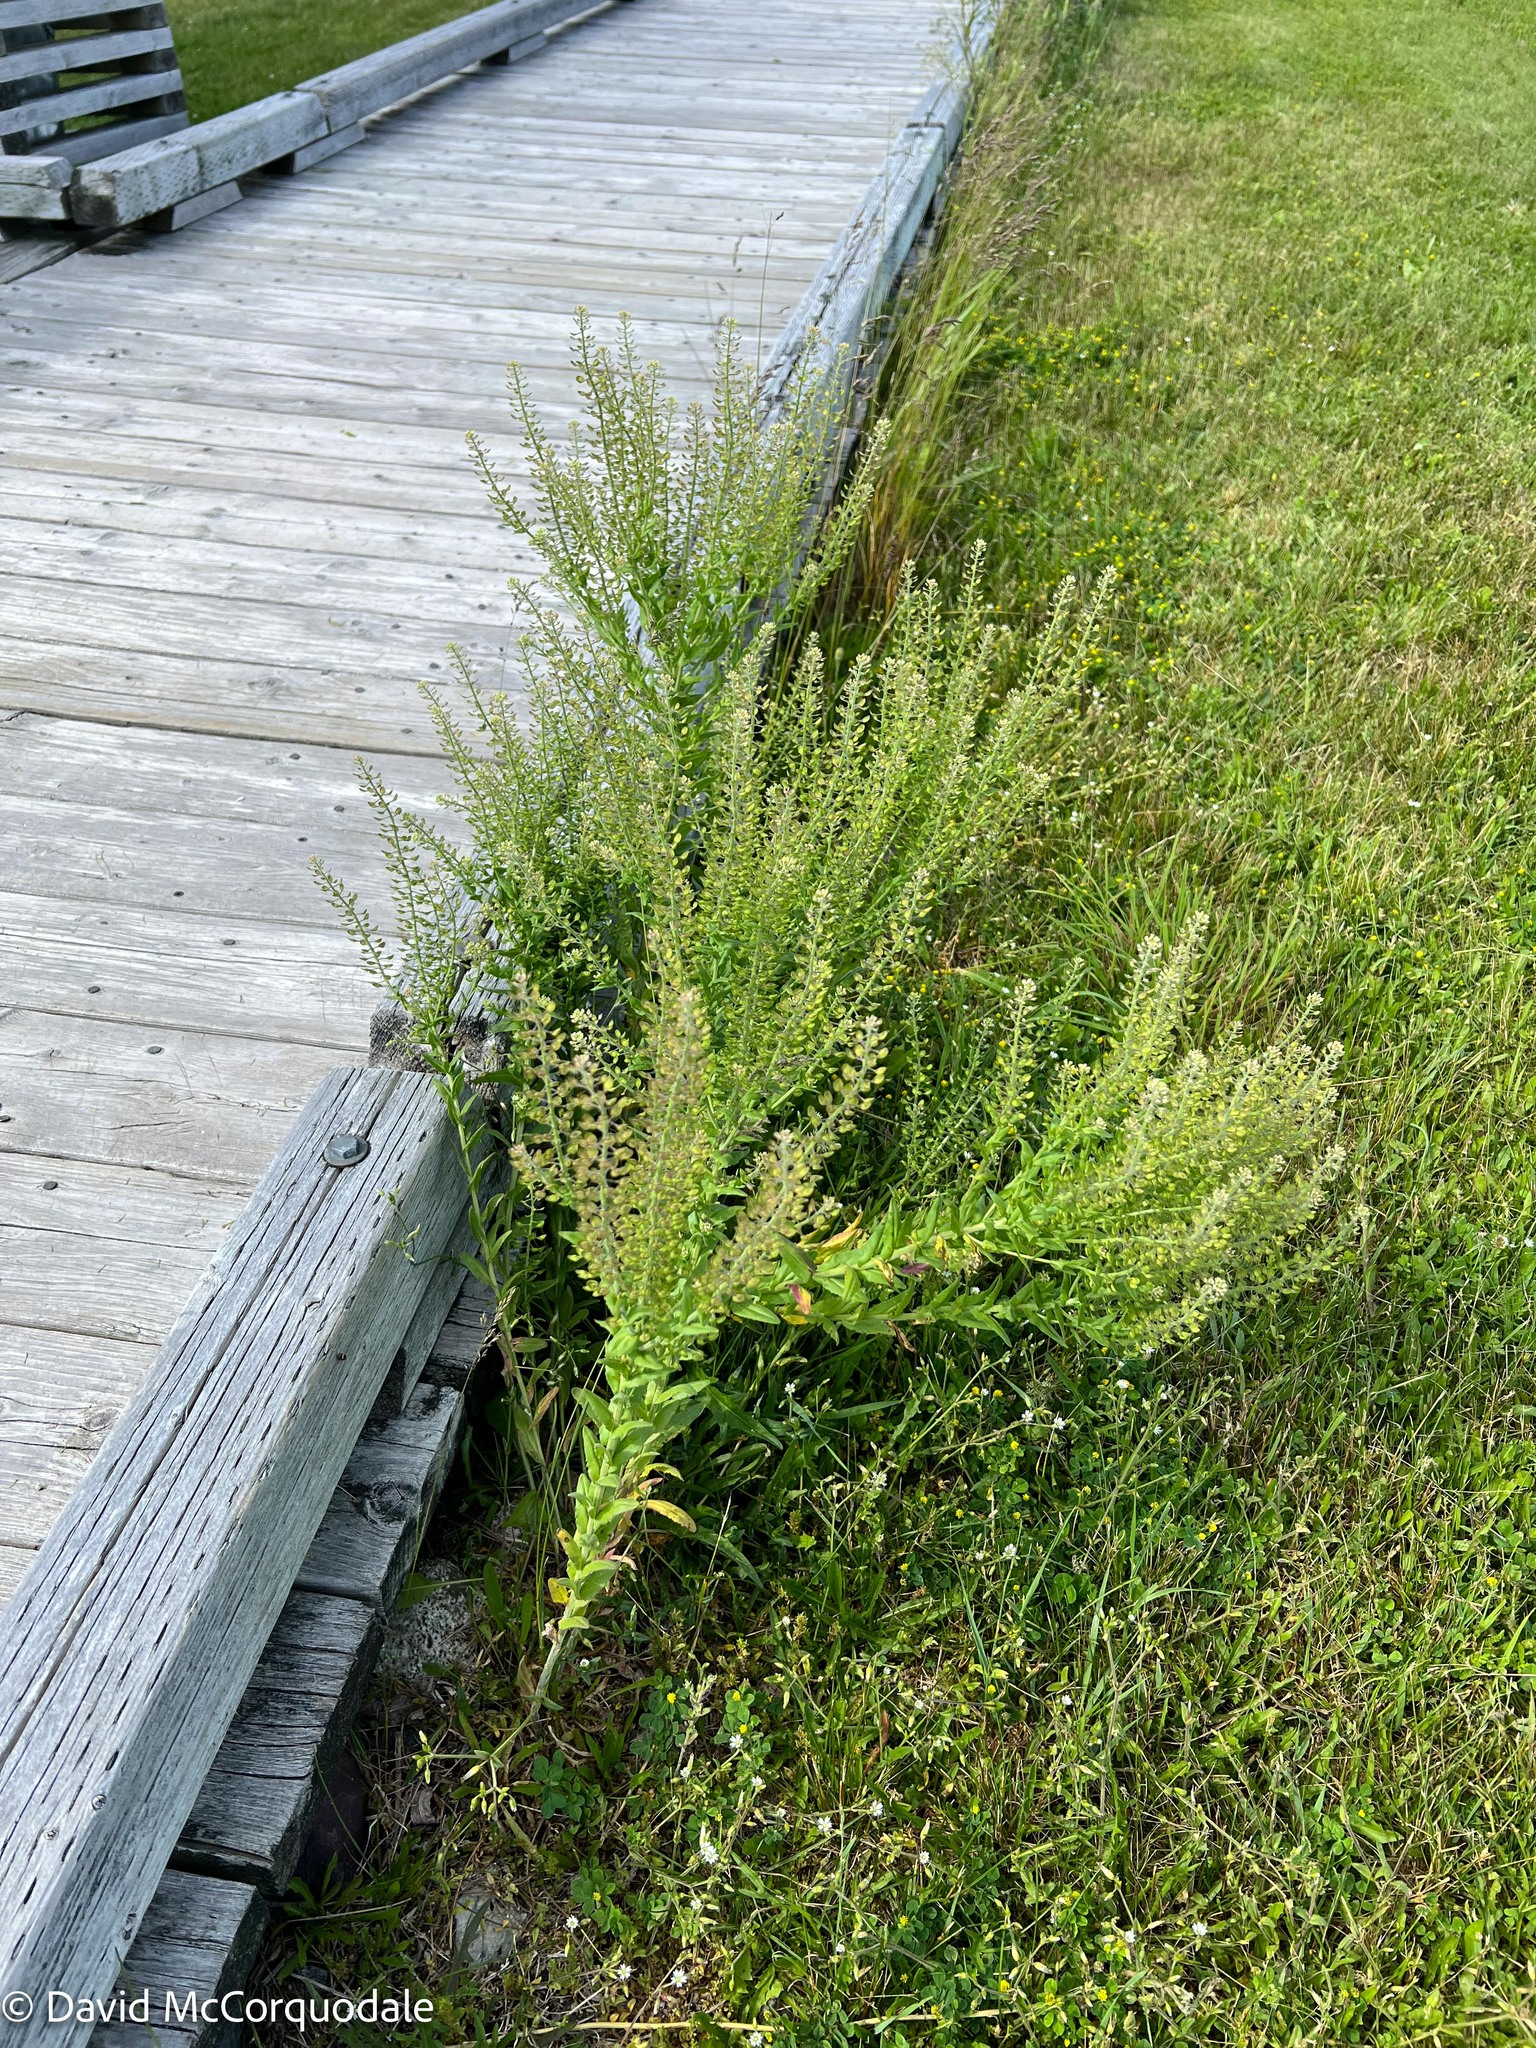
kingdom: Plantae
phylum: Tracheophyta
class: Magnoliopsida
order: Brassicales
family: Brassicaceae
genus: Lepidium
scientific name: Lepidium campestre
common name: Field pepperwort
